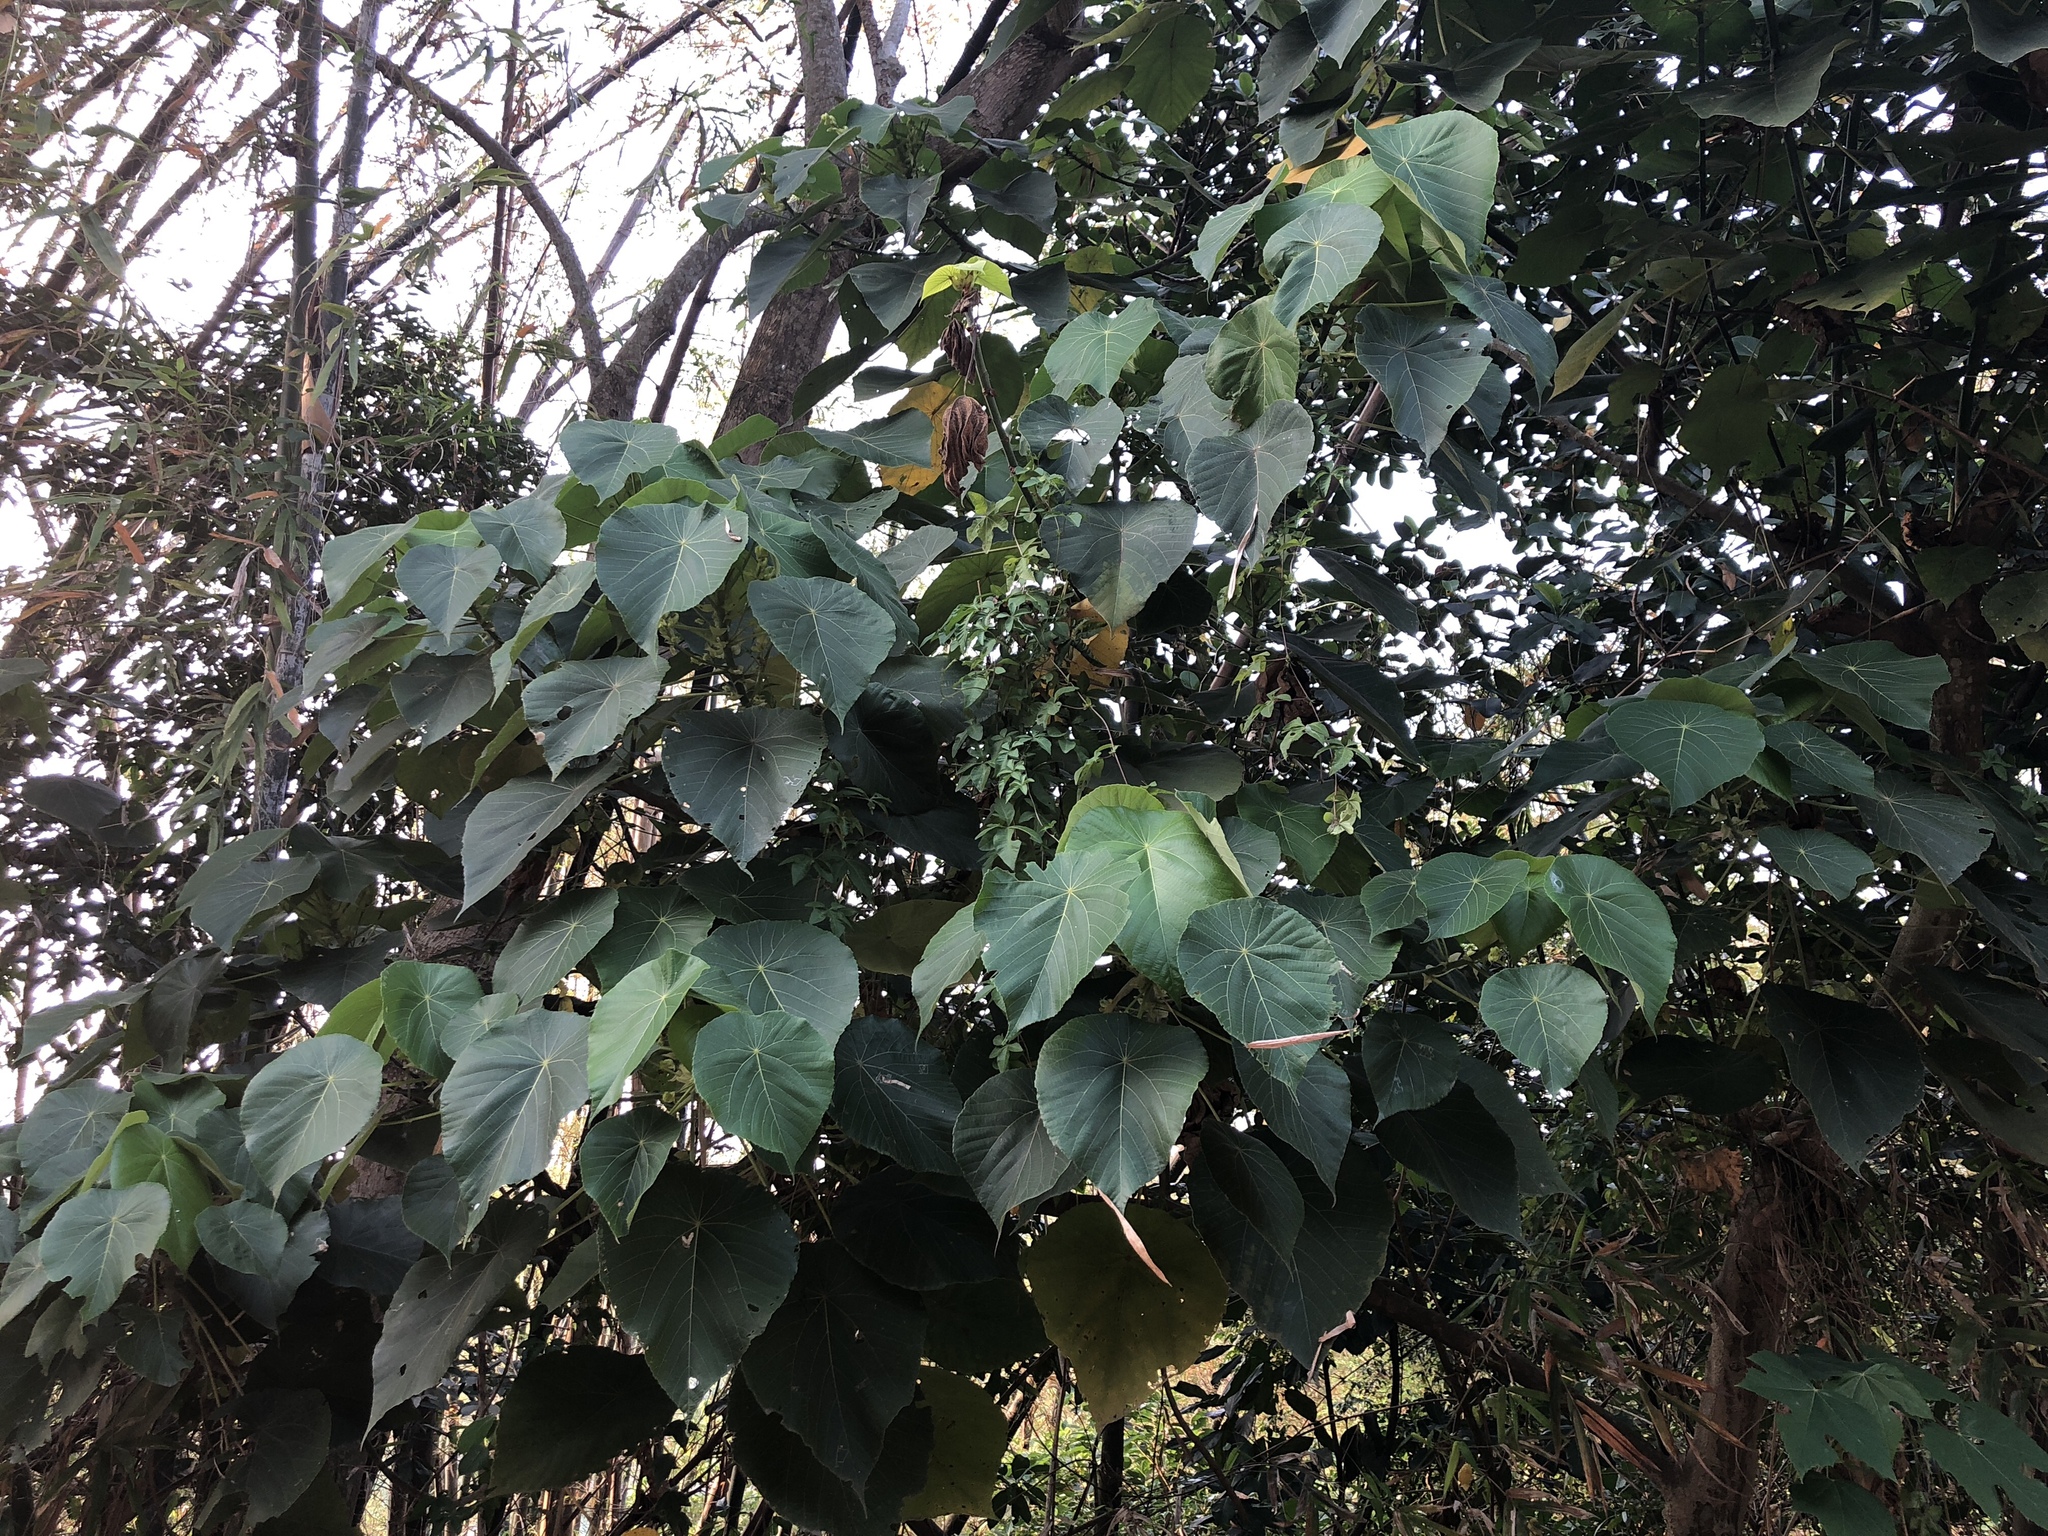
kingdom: Plantae
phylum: Tracheophyta
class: Magnoliopsida
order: Malpighiales
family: Euphorbiaceae
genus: Macaranga
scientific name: Macaranga tanarius
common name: Parasol leaf tree
